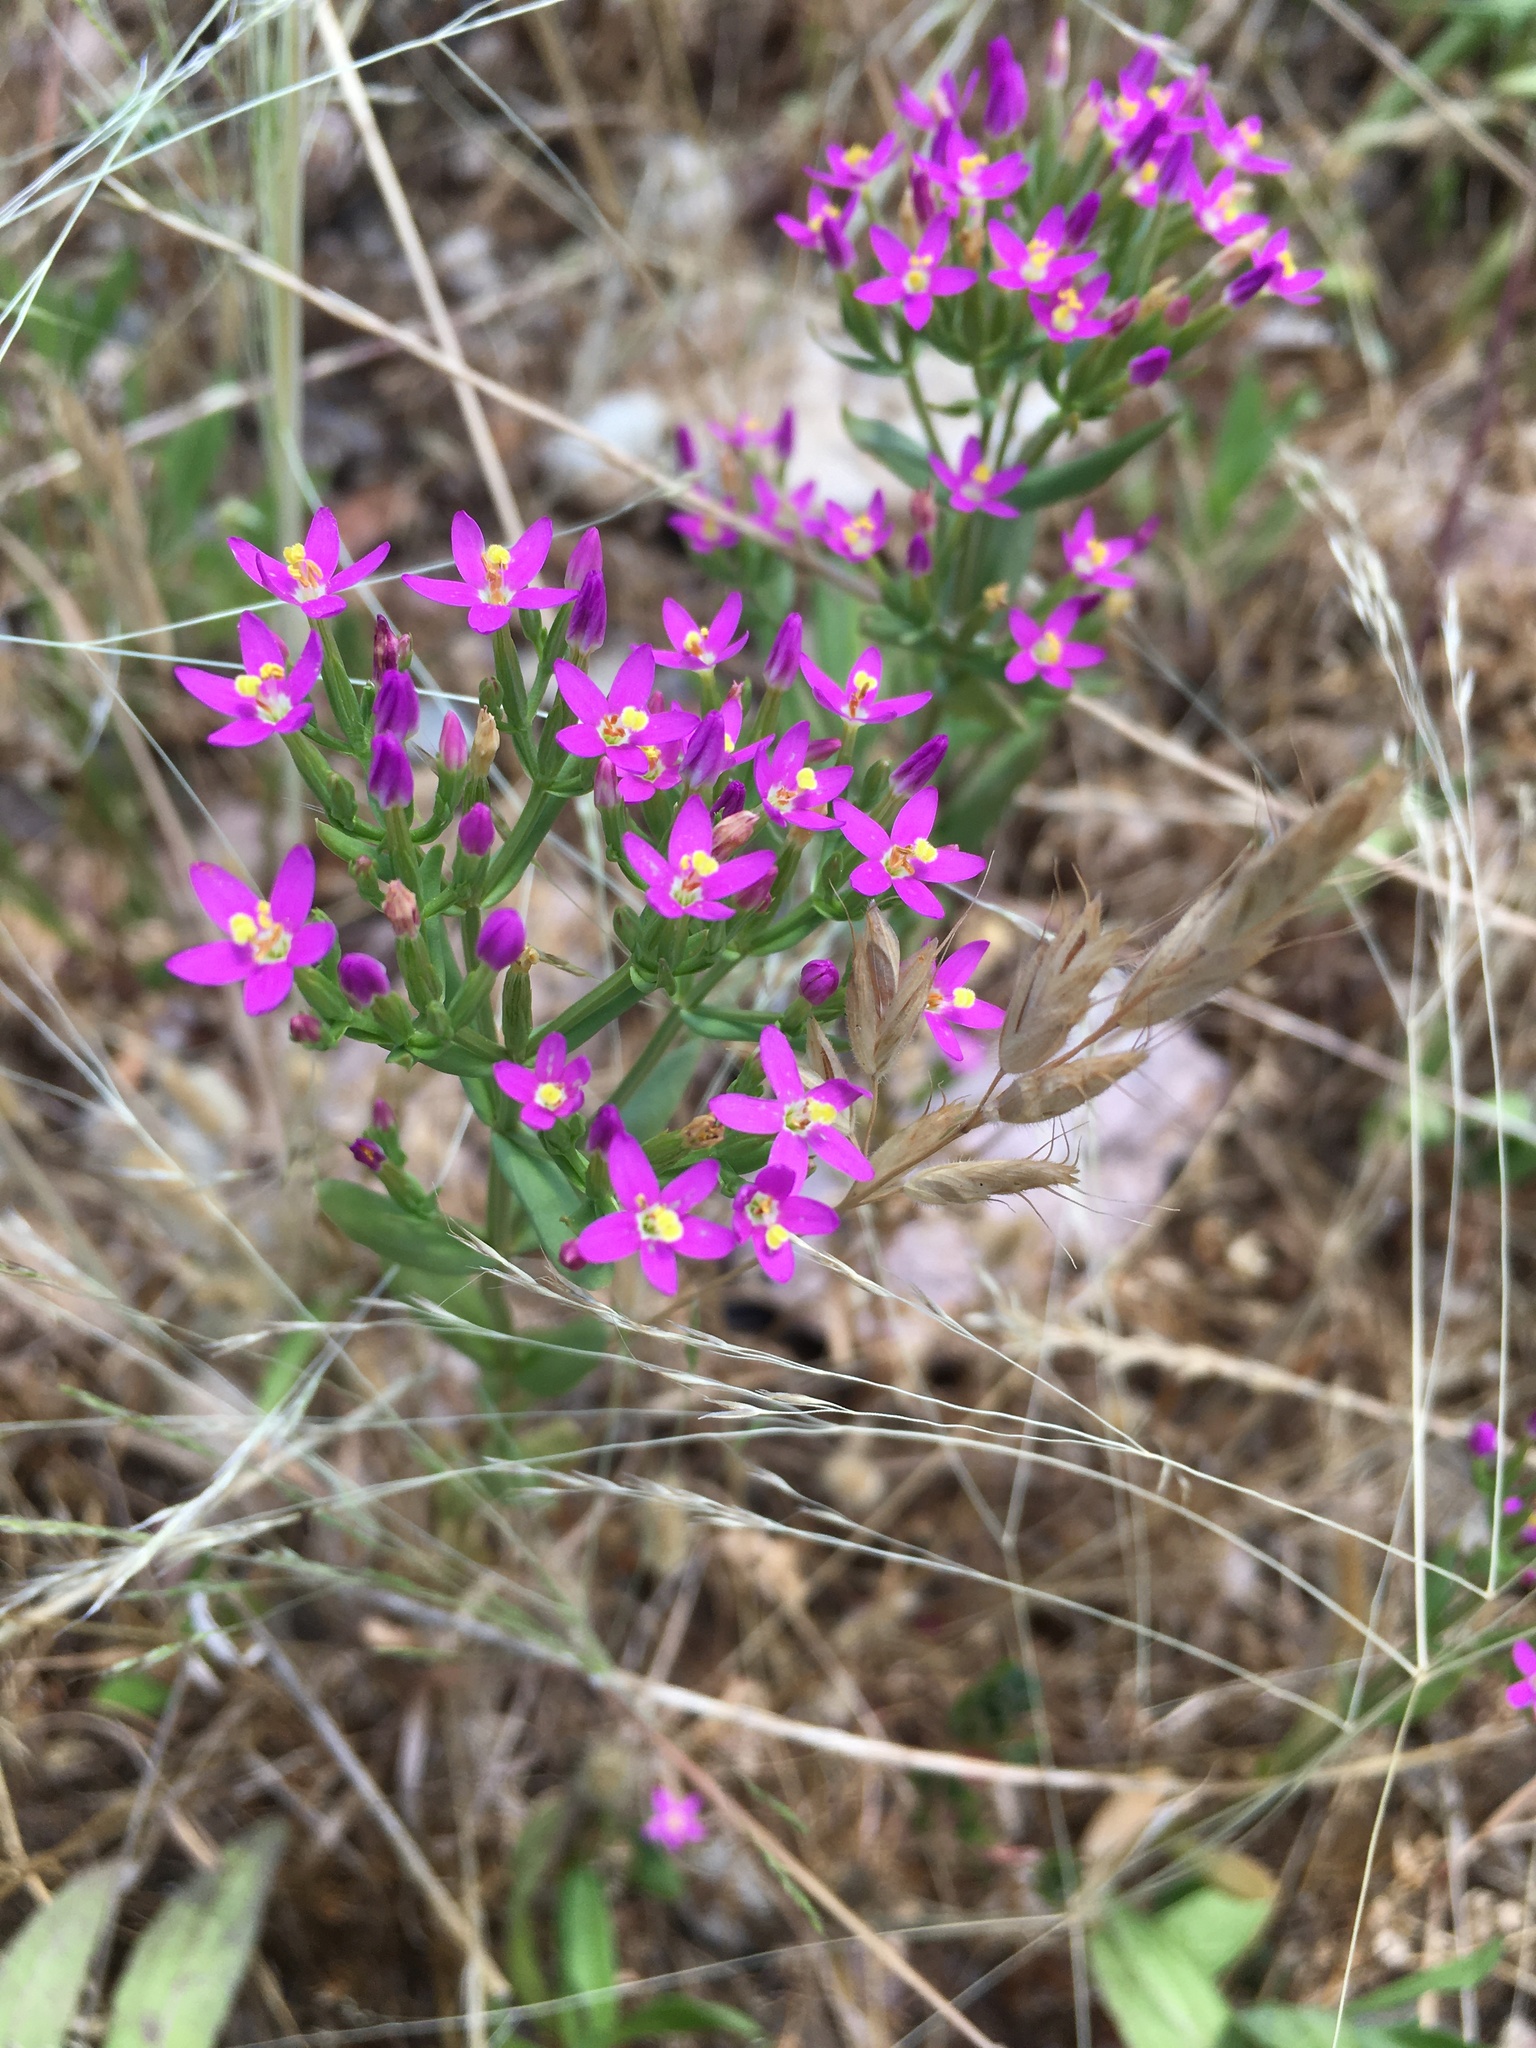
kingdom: Plantae
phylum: Tracheophyta
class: Magnoliopsida
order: Gentianales
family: Gentianaceae
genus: Centaurium
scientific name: Centaurium tenuiflorum
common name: Slender centaury
